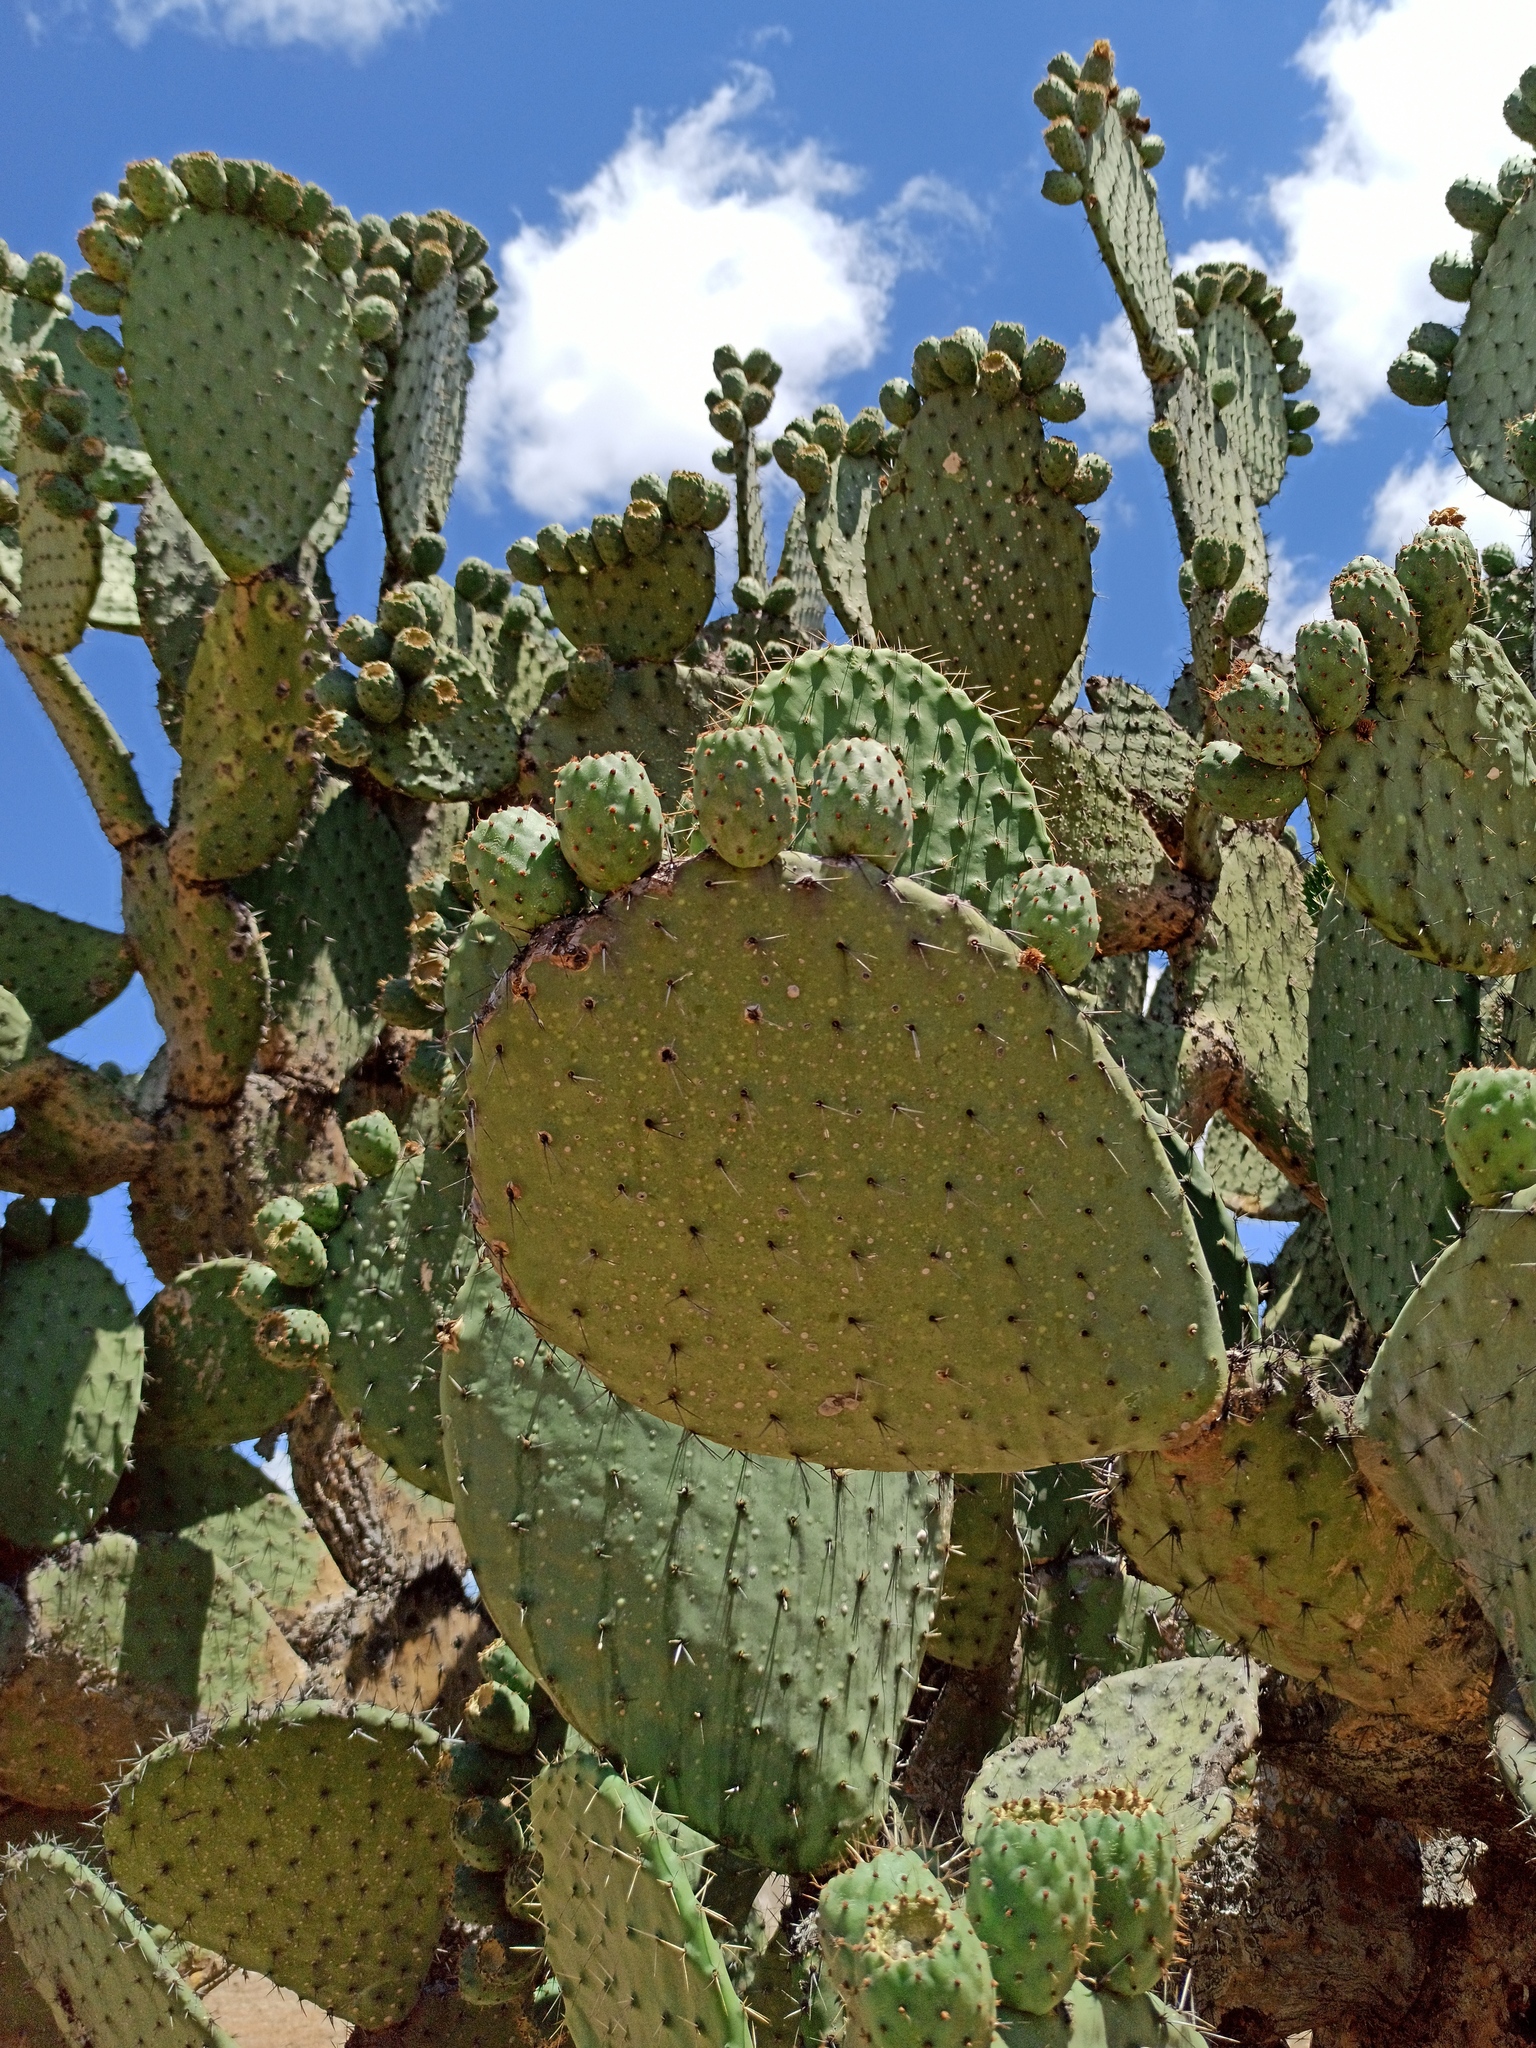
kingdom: Plantae
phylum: Tracheophyta
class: Magnoliopsida
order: Caryophyllales
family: Cactaceae
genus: Opuntia
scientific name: Opuntia hyptiacantha
